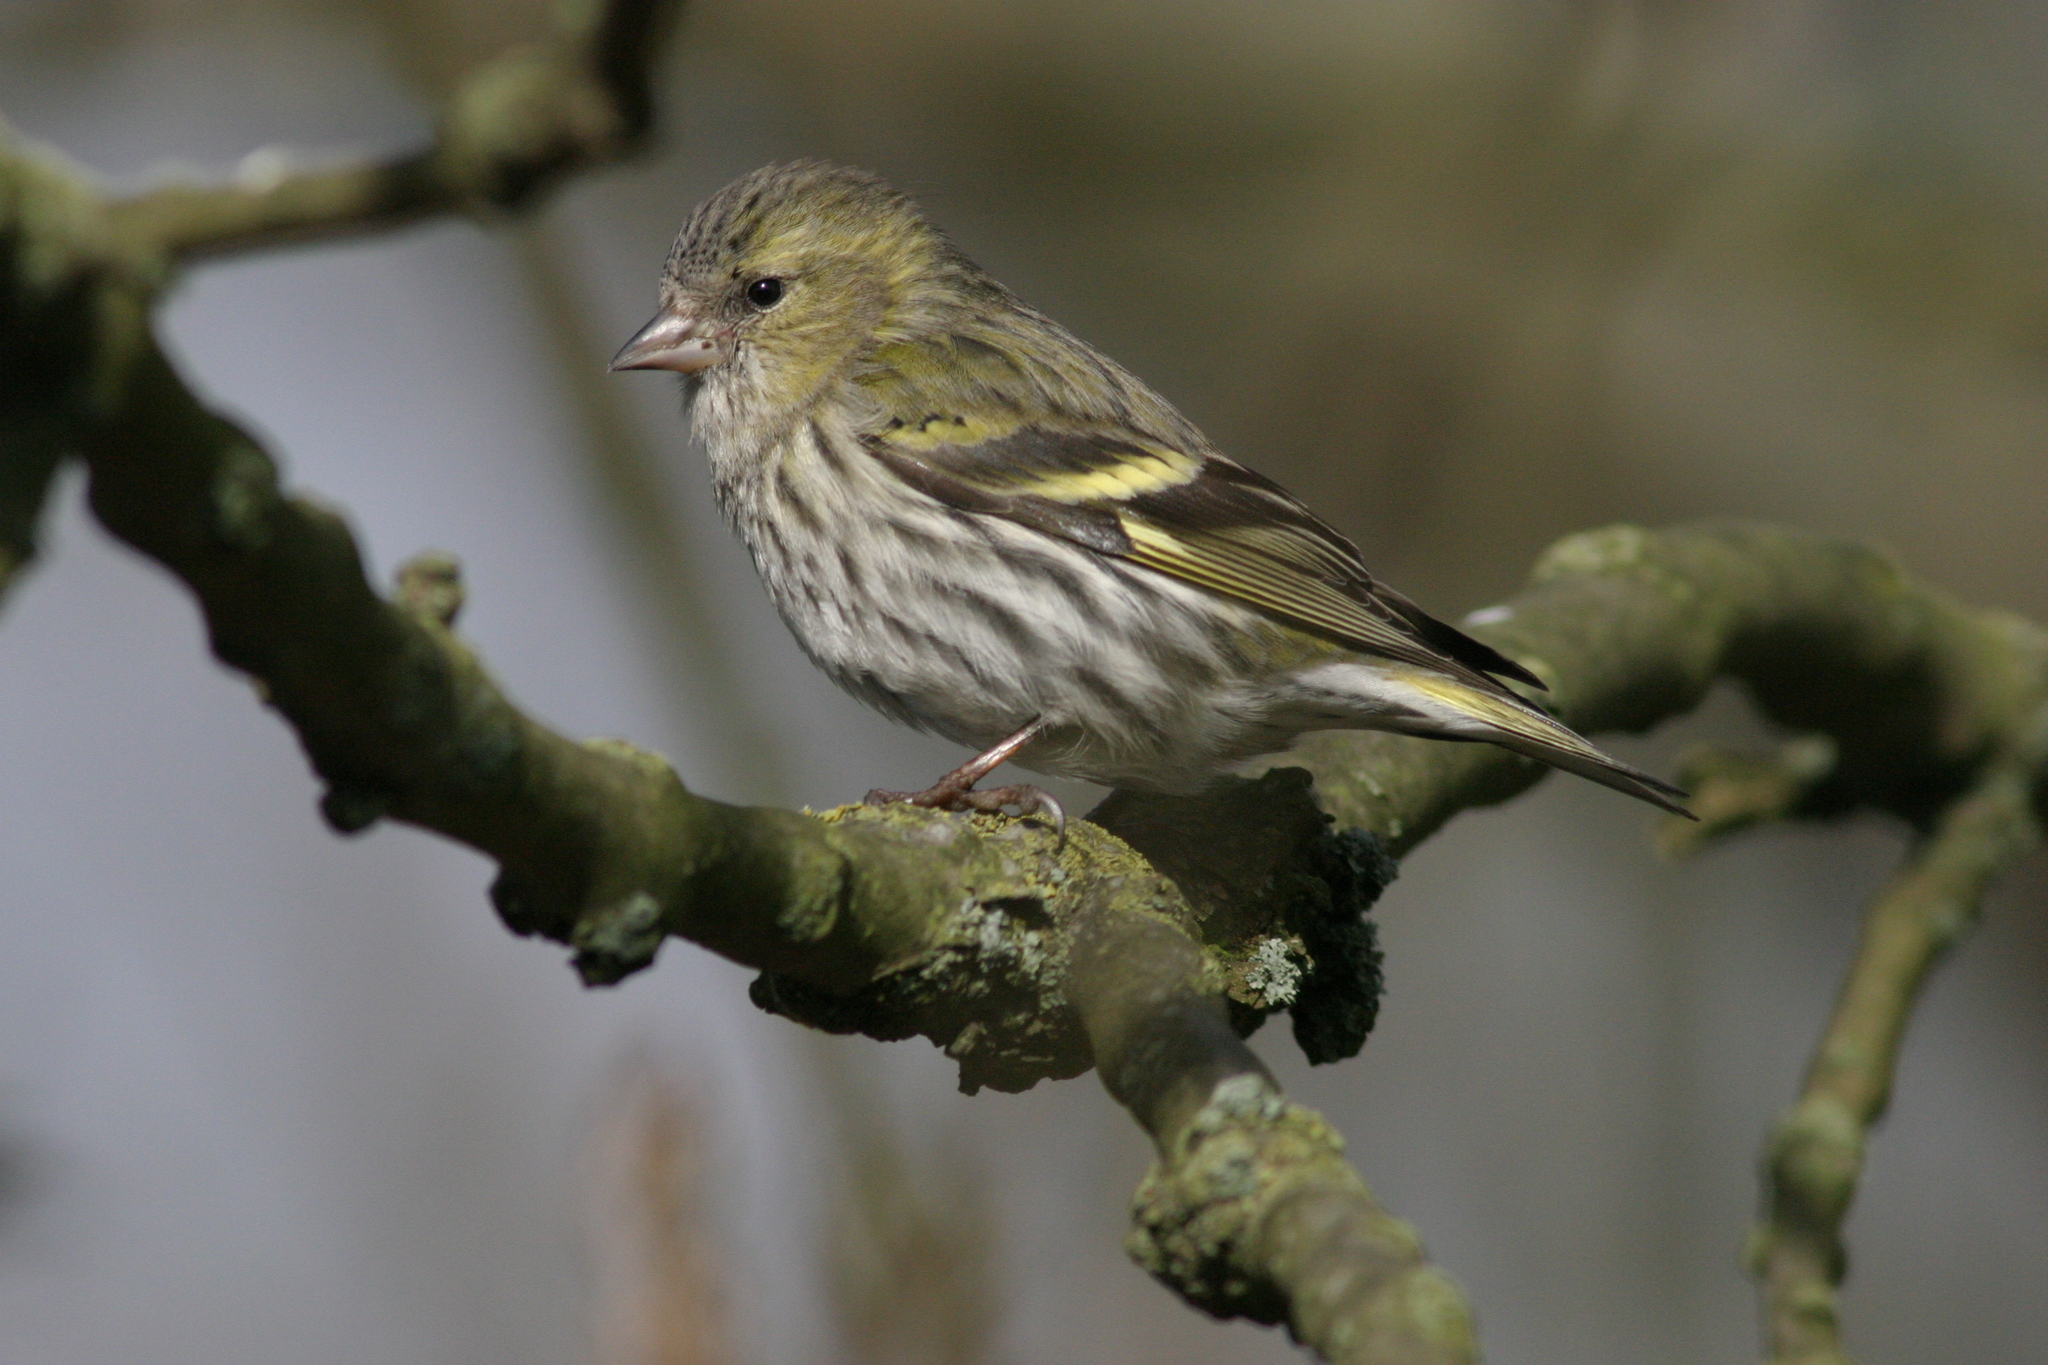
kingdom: Animalia
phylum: Chordata
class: Aves
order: Passeriformes
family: Fringillidae
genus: Spinus
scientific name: Spinus spinus
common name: Eurasian siskin
